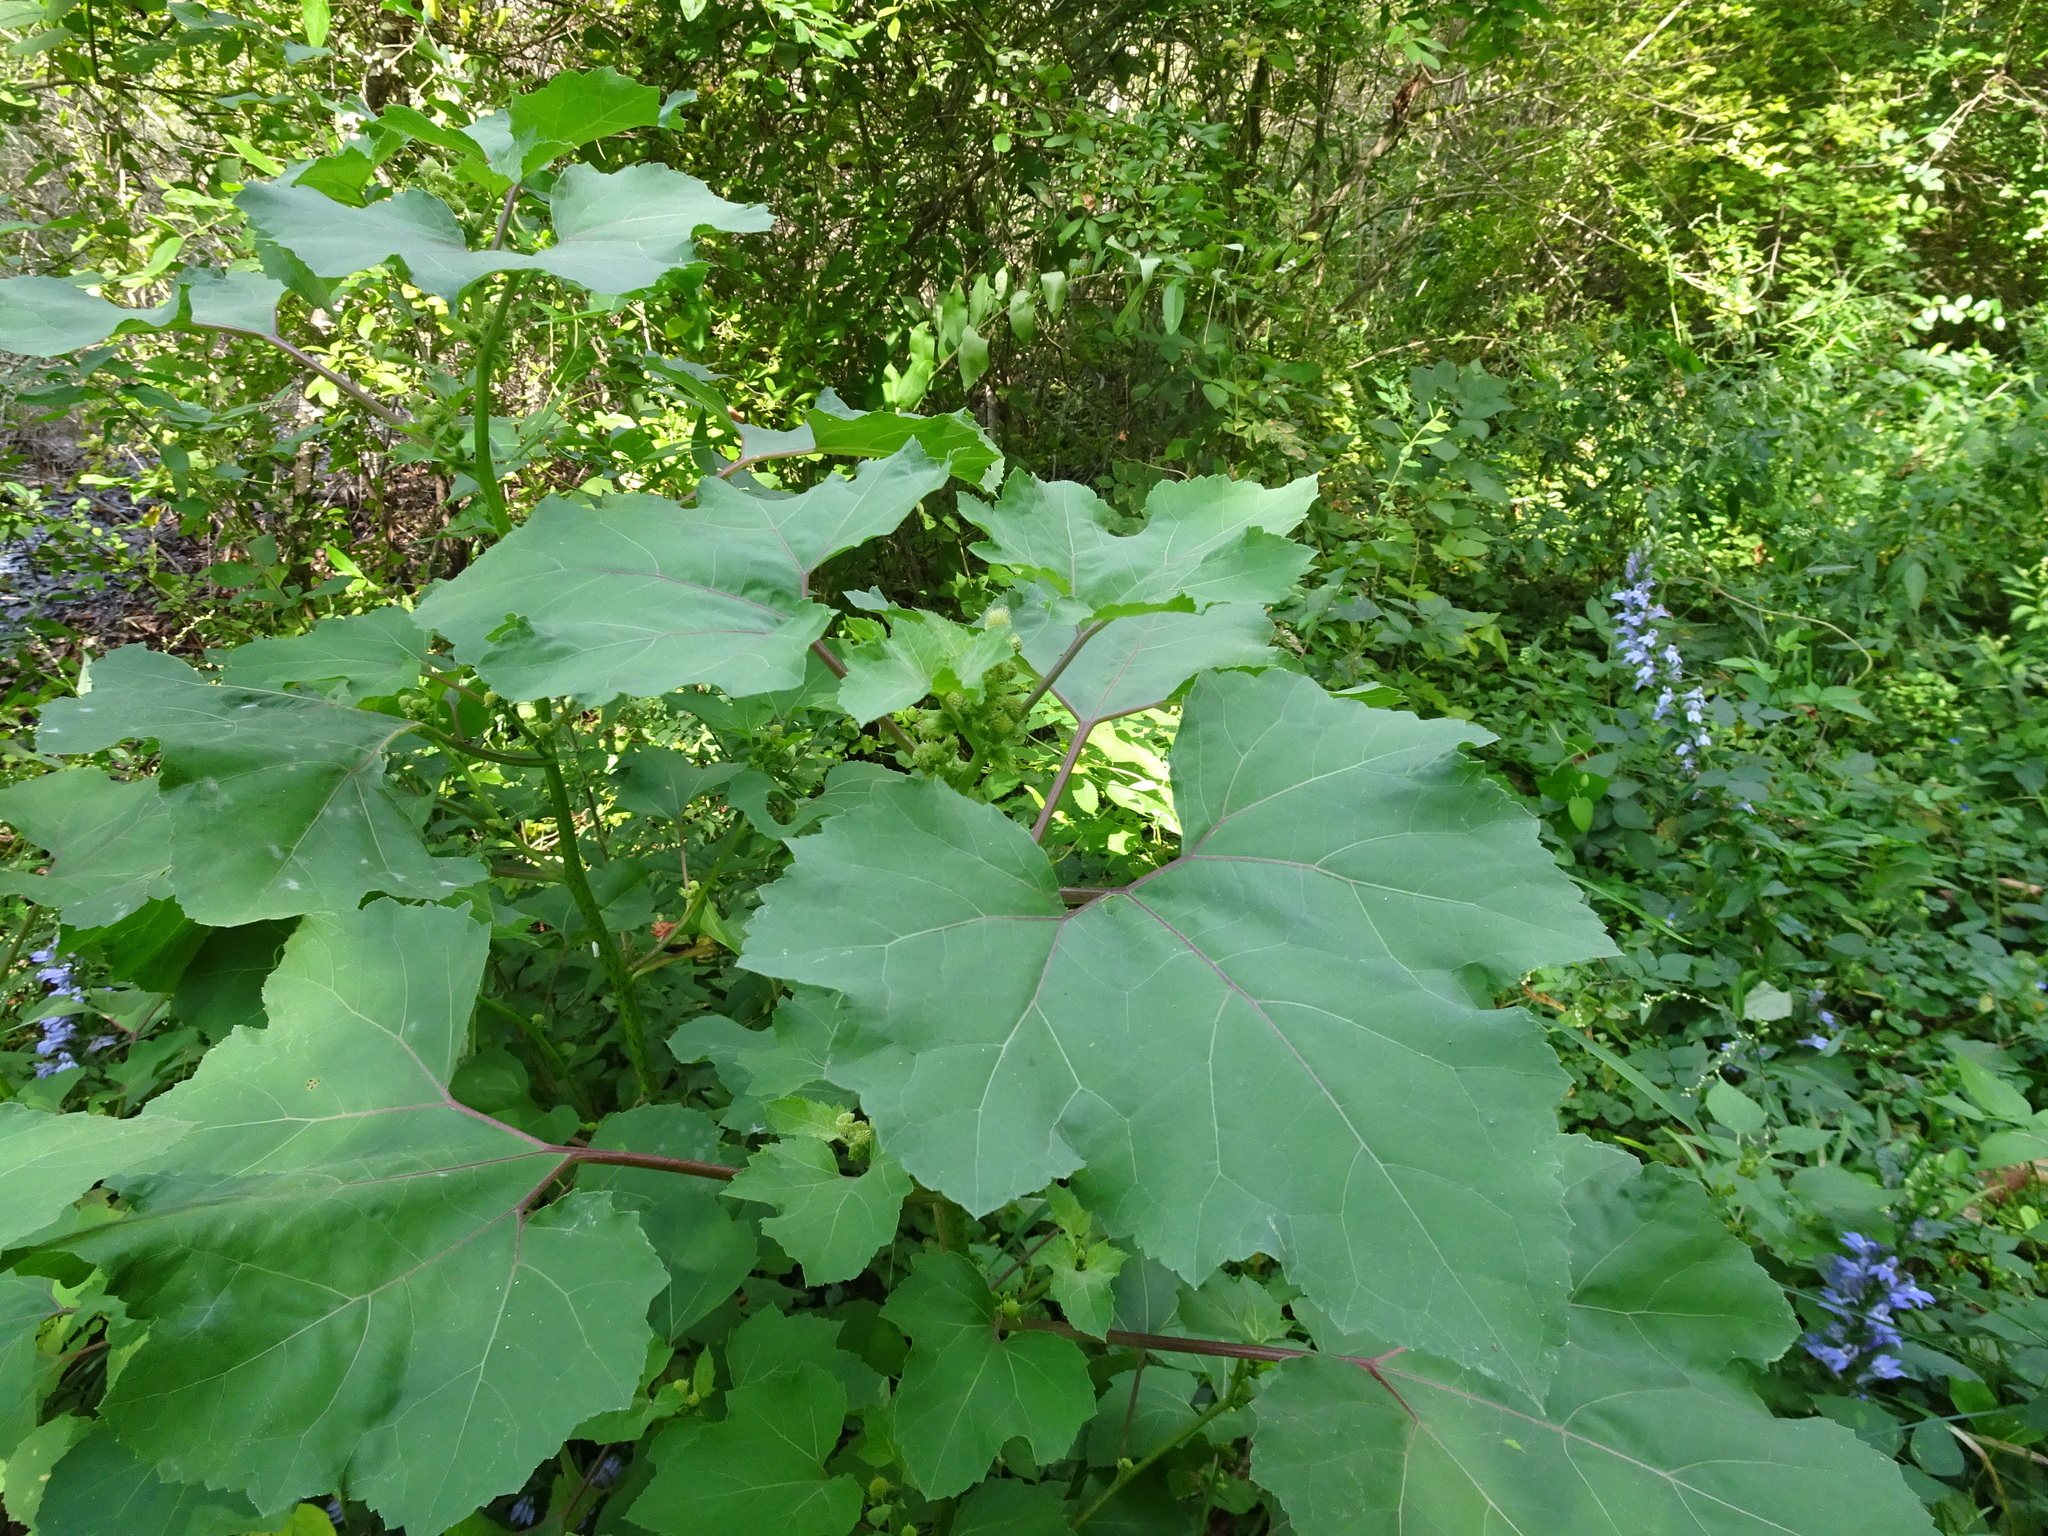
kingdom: Plantae
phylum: Tracheophyta
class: Magnoliopsida
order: Asterales
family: Asteraceae
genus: Xanthium
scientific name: Xanthium strumarium
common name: Rough cocklebur
